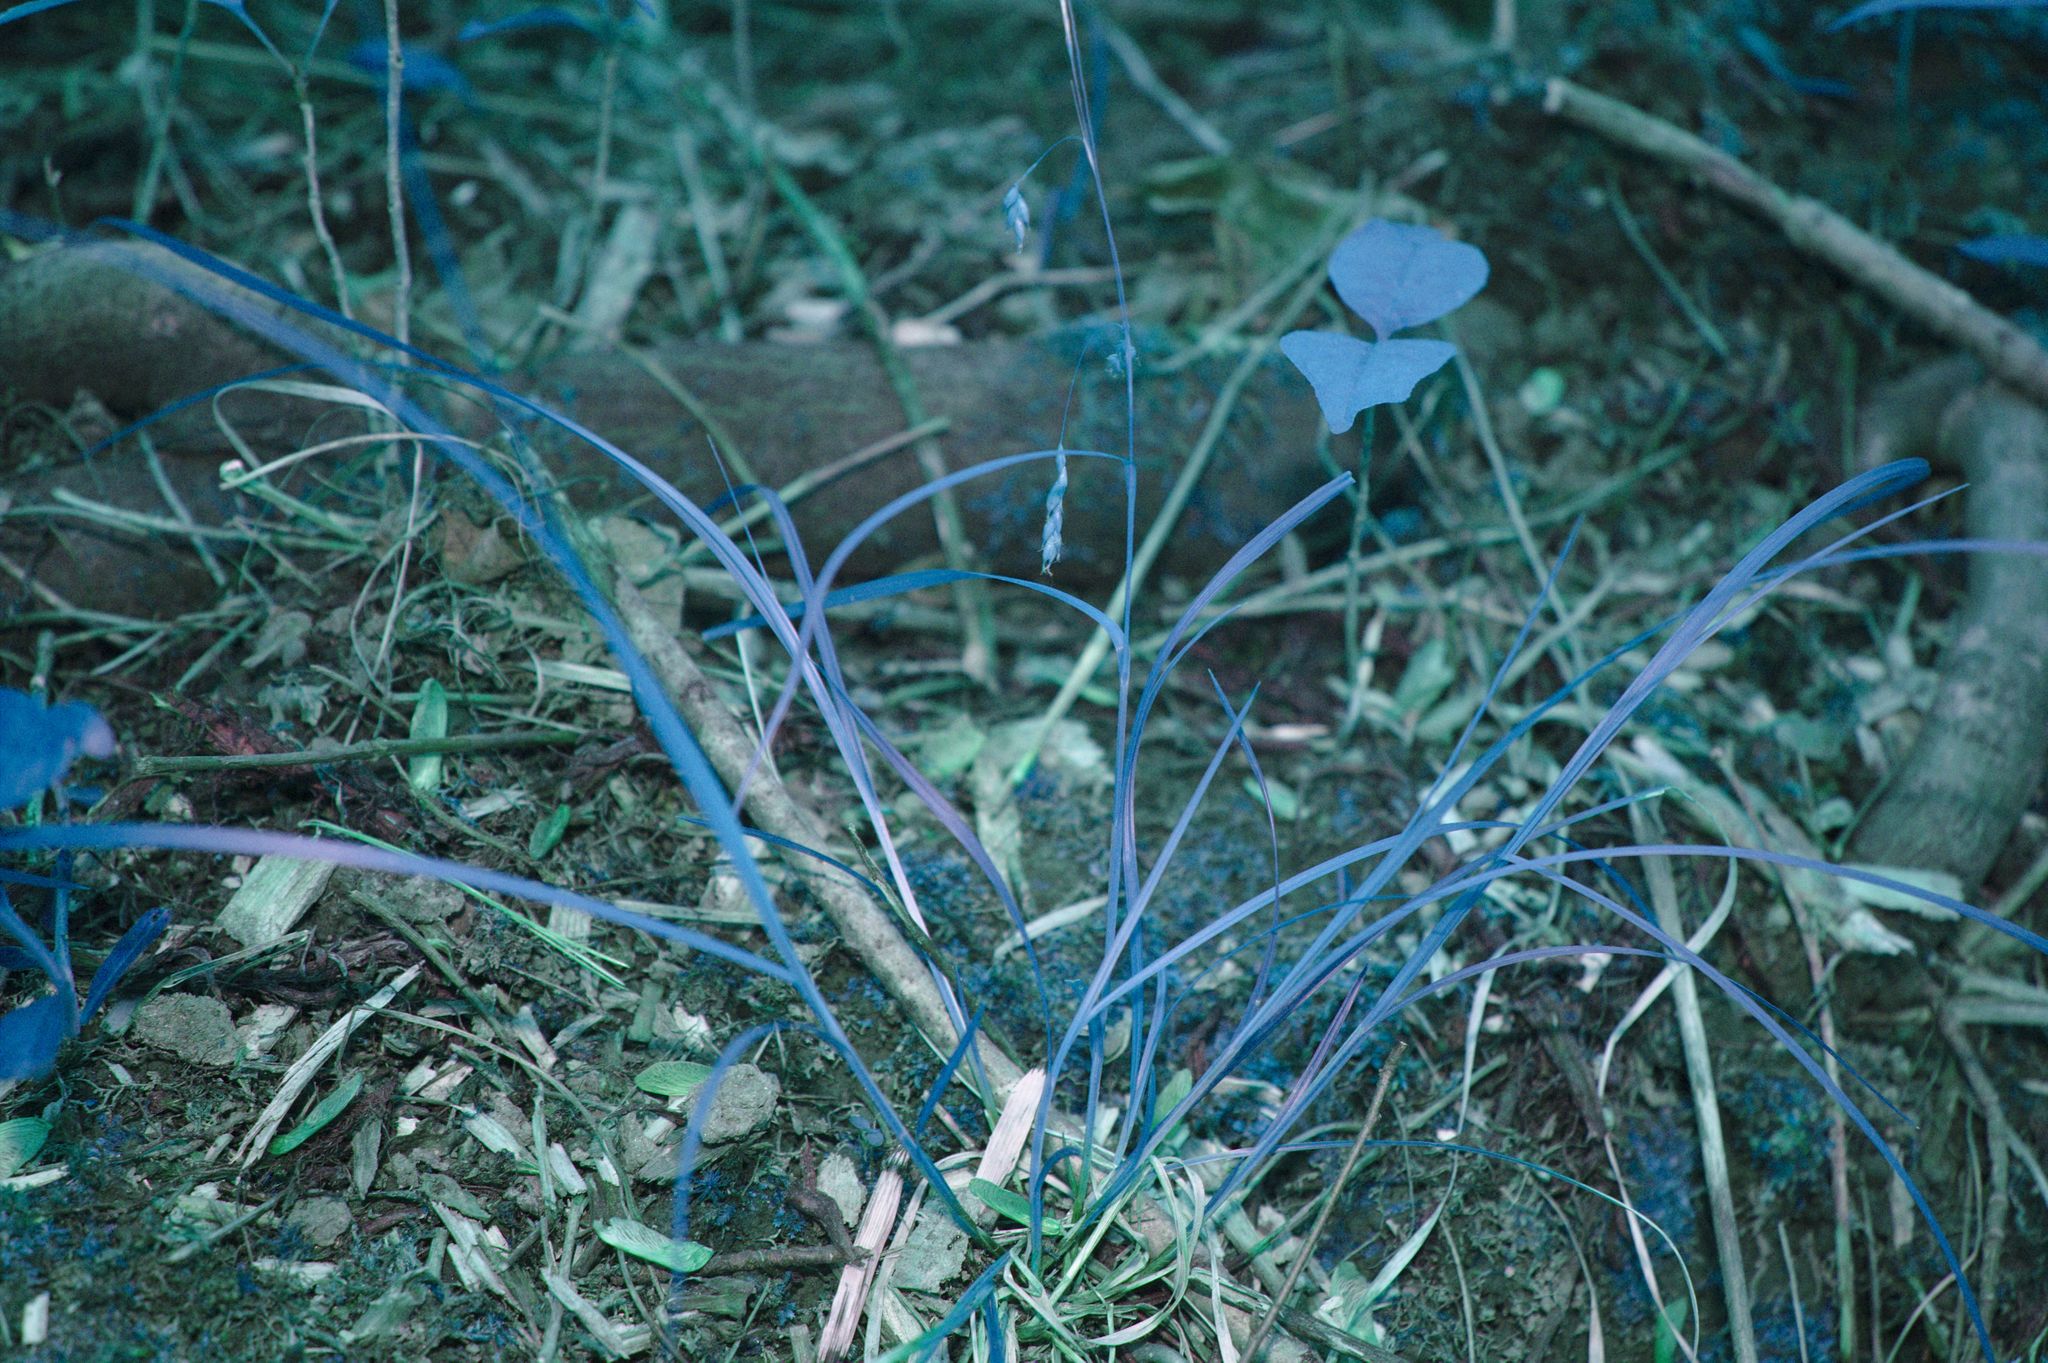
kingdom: Plantae
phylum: Tracheophyta
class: Liliopsida
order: Poales
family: Cyperaceae
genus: Carex
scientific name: Carex debilis
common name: White-edge sedge
